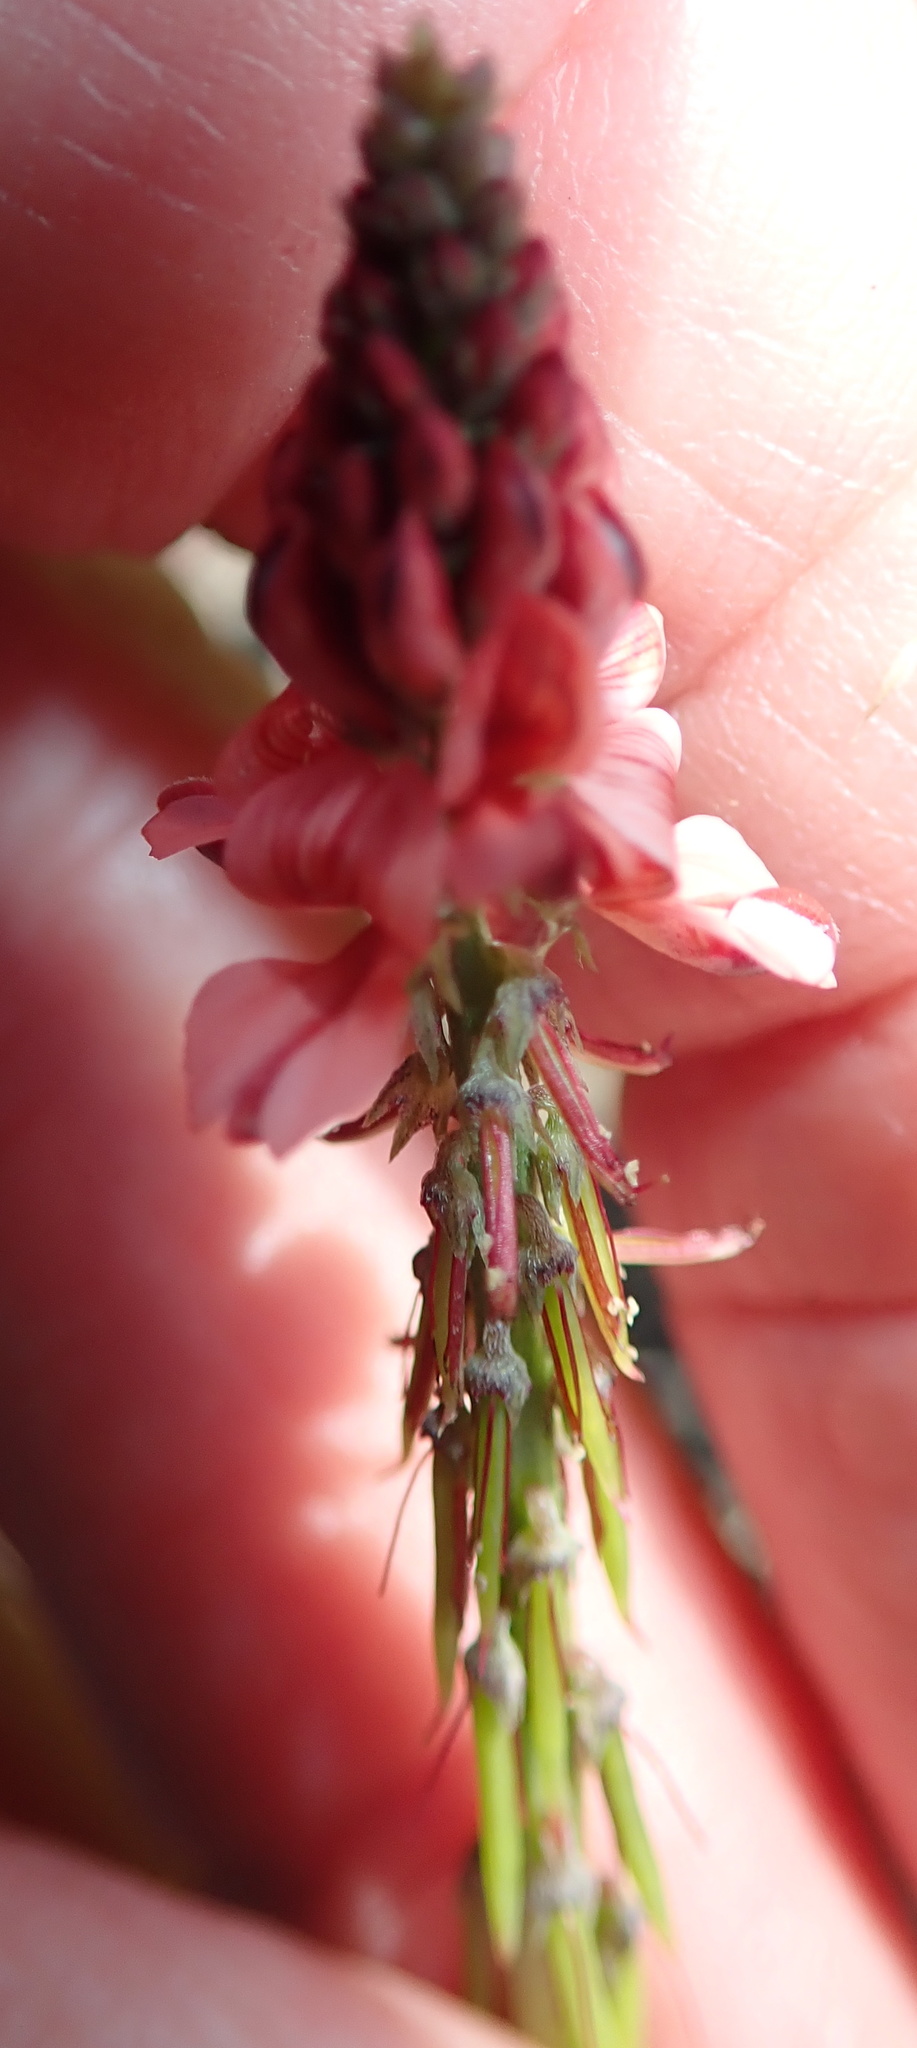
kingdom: Plantae
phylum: Tracheophyta
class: Magnoliopsida
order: Fabales
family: Fabaceae
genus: Indigofera
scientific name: Indigofera dimidiata
